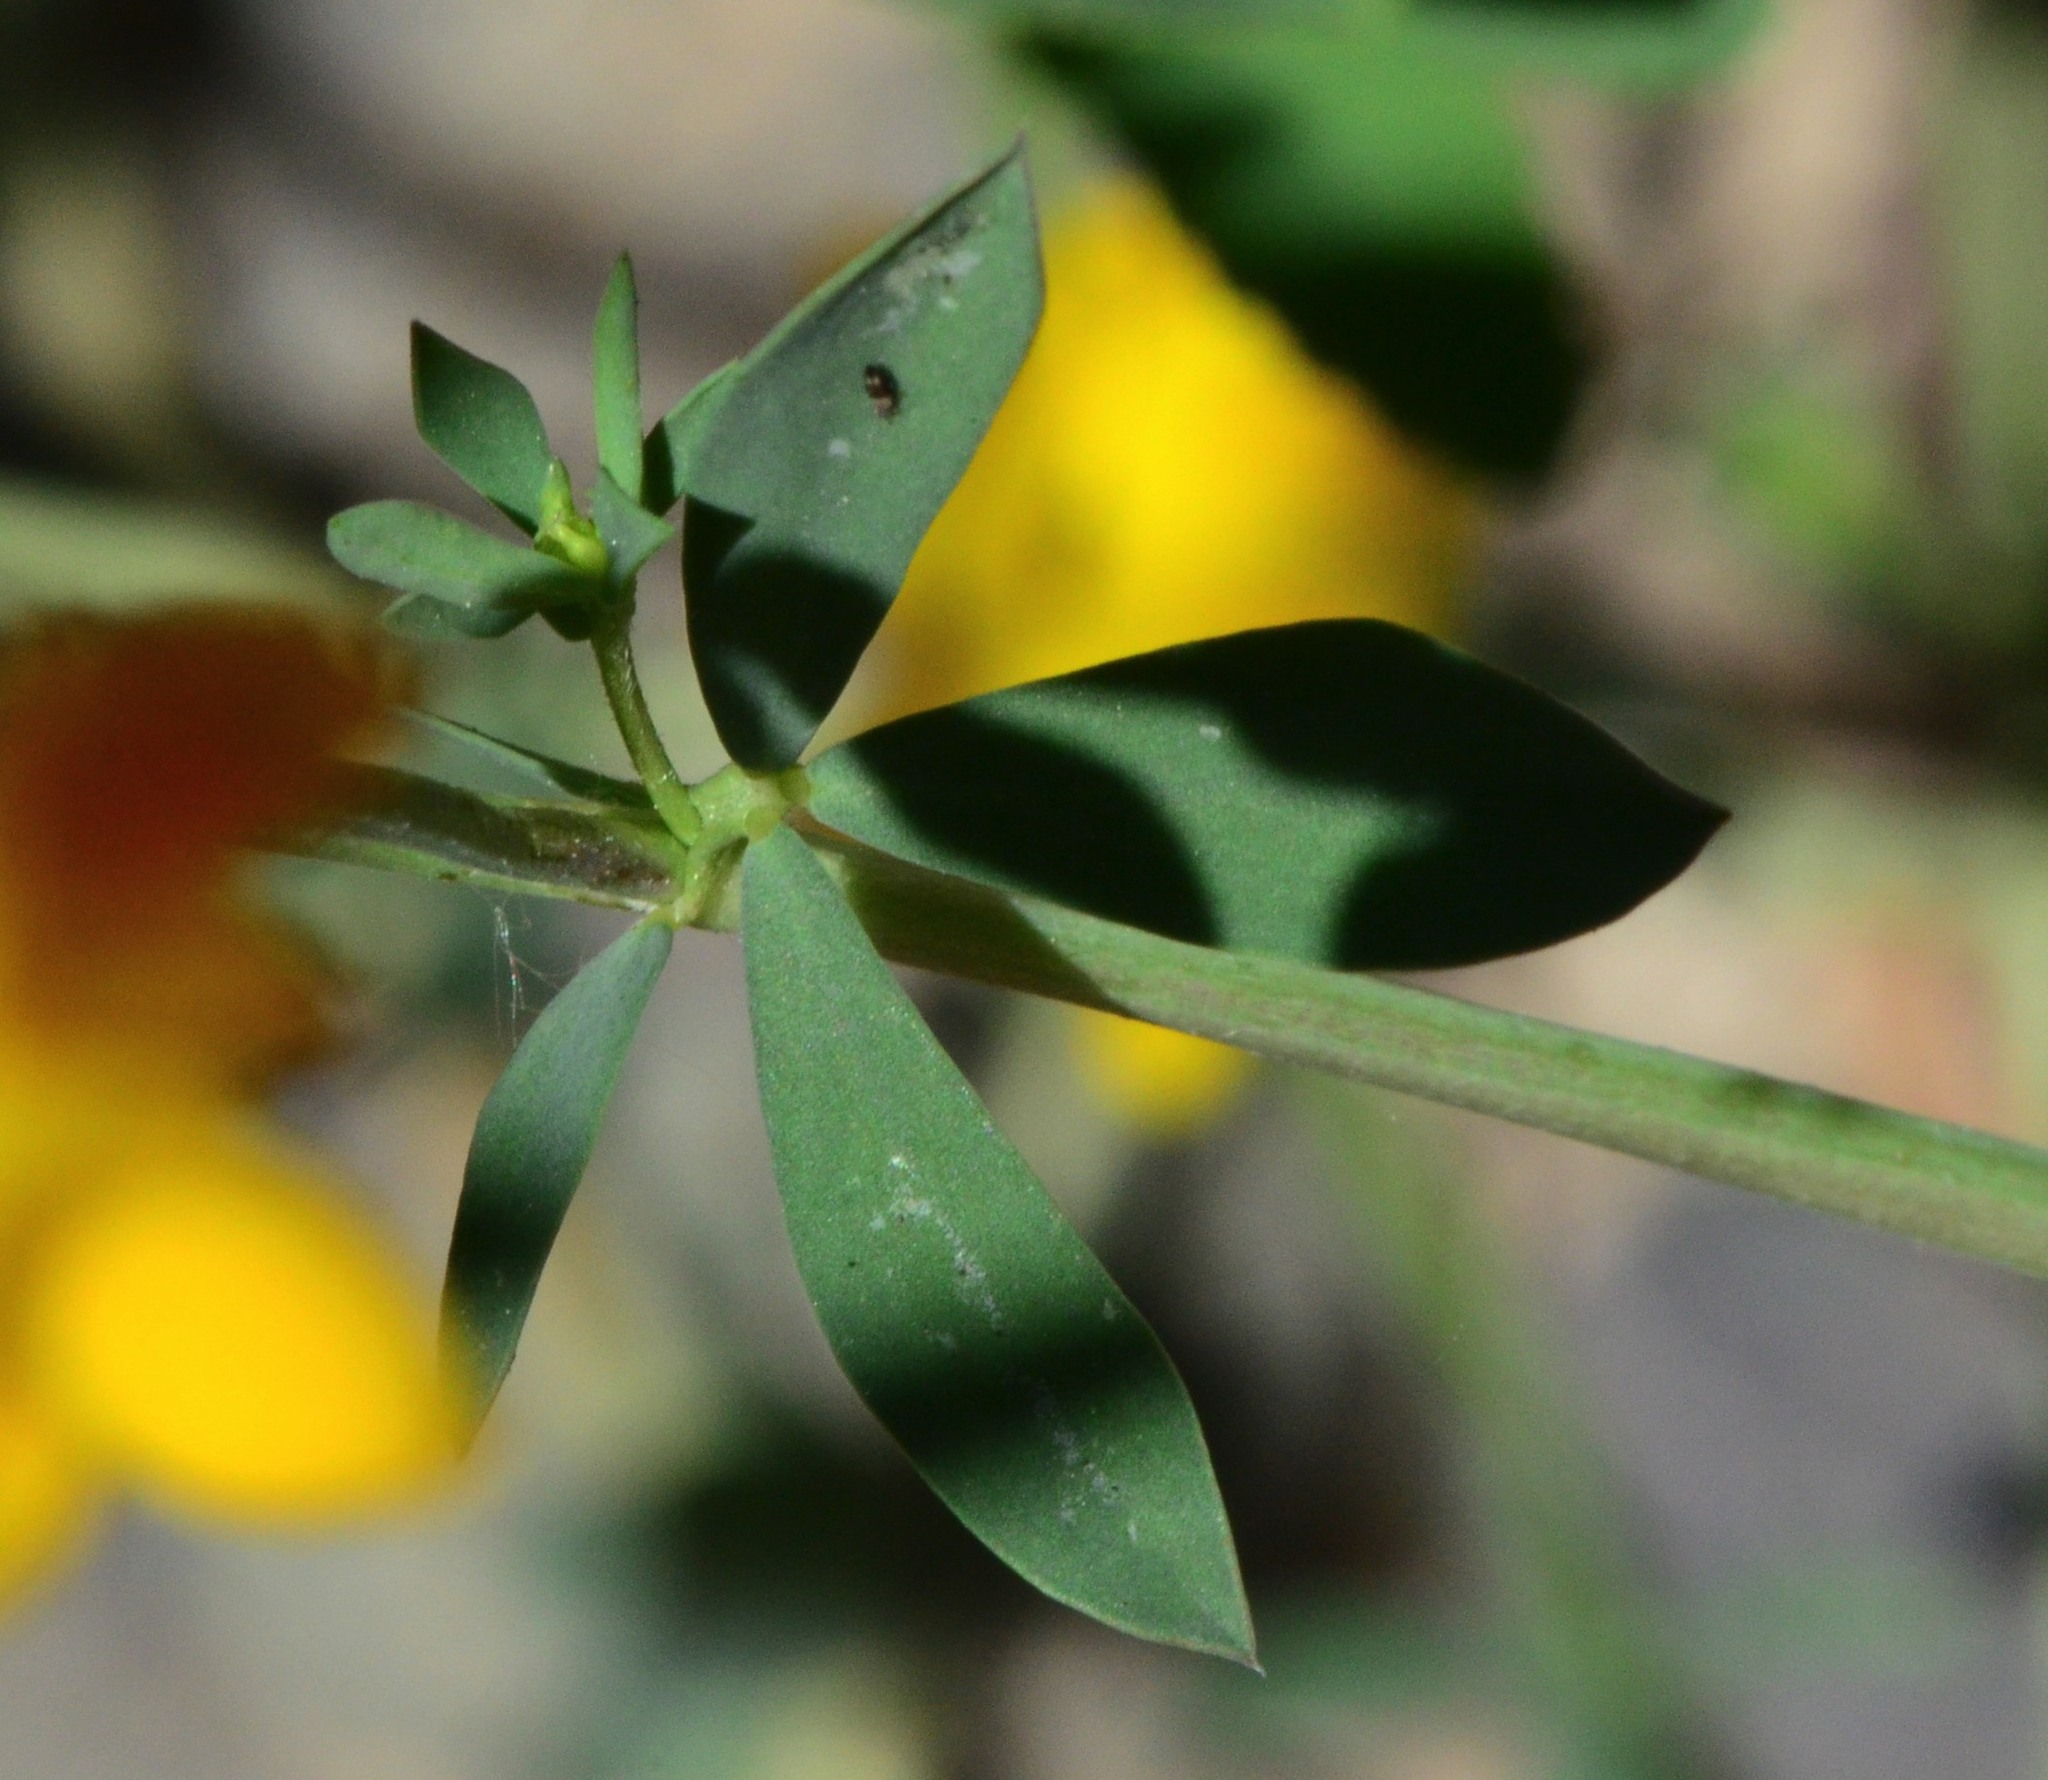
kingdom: Plantae
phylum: Tracheophyta
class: Magnoliopsida
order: Fabales
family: Fabaceae
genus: Lotus
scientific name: Lotus tenuis
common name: Narrow-leaved bird's-foot-trefoil
